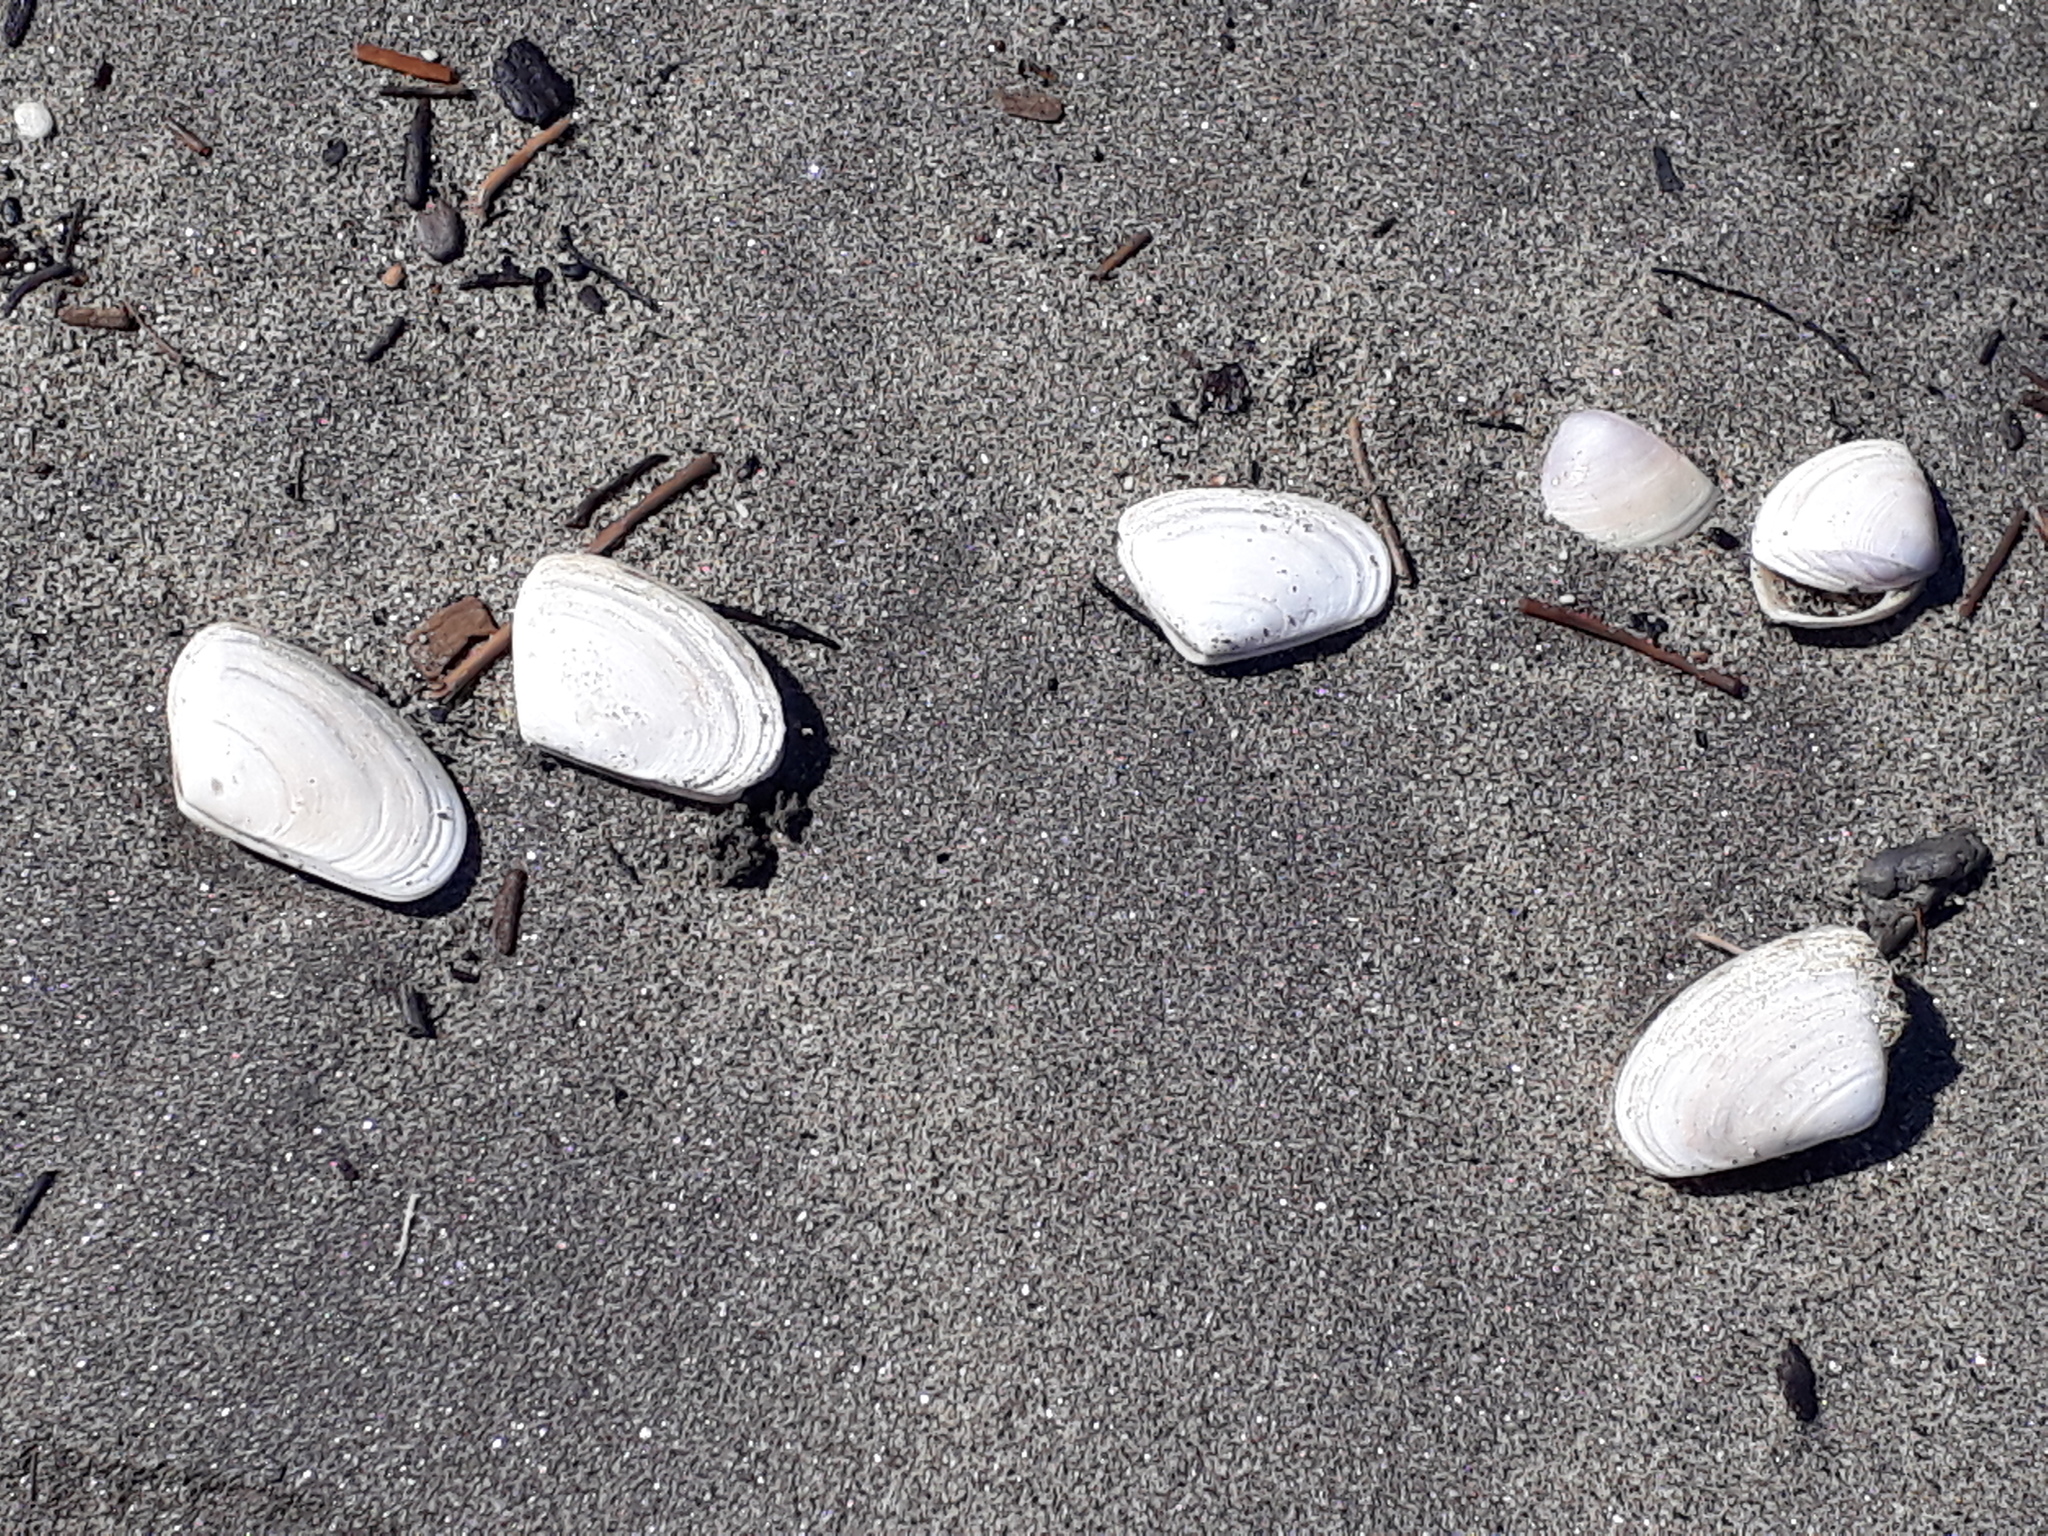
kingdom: Animalia
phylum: Mollusca
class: Bivalvia
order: Venerida
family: Mesodesmatidae
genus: Paphies
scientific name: Paphies donacina
